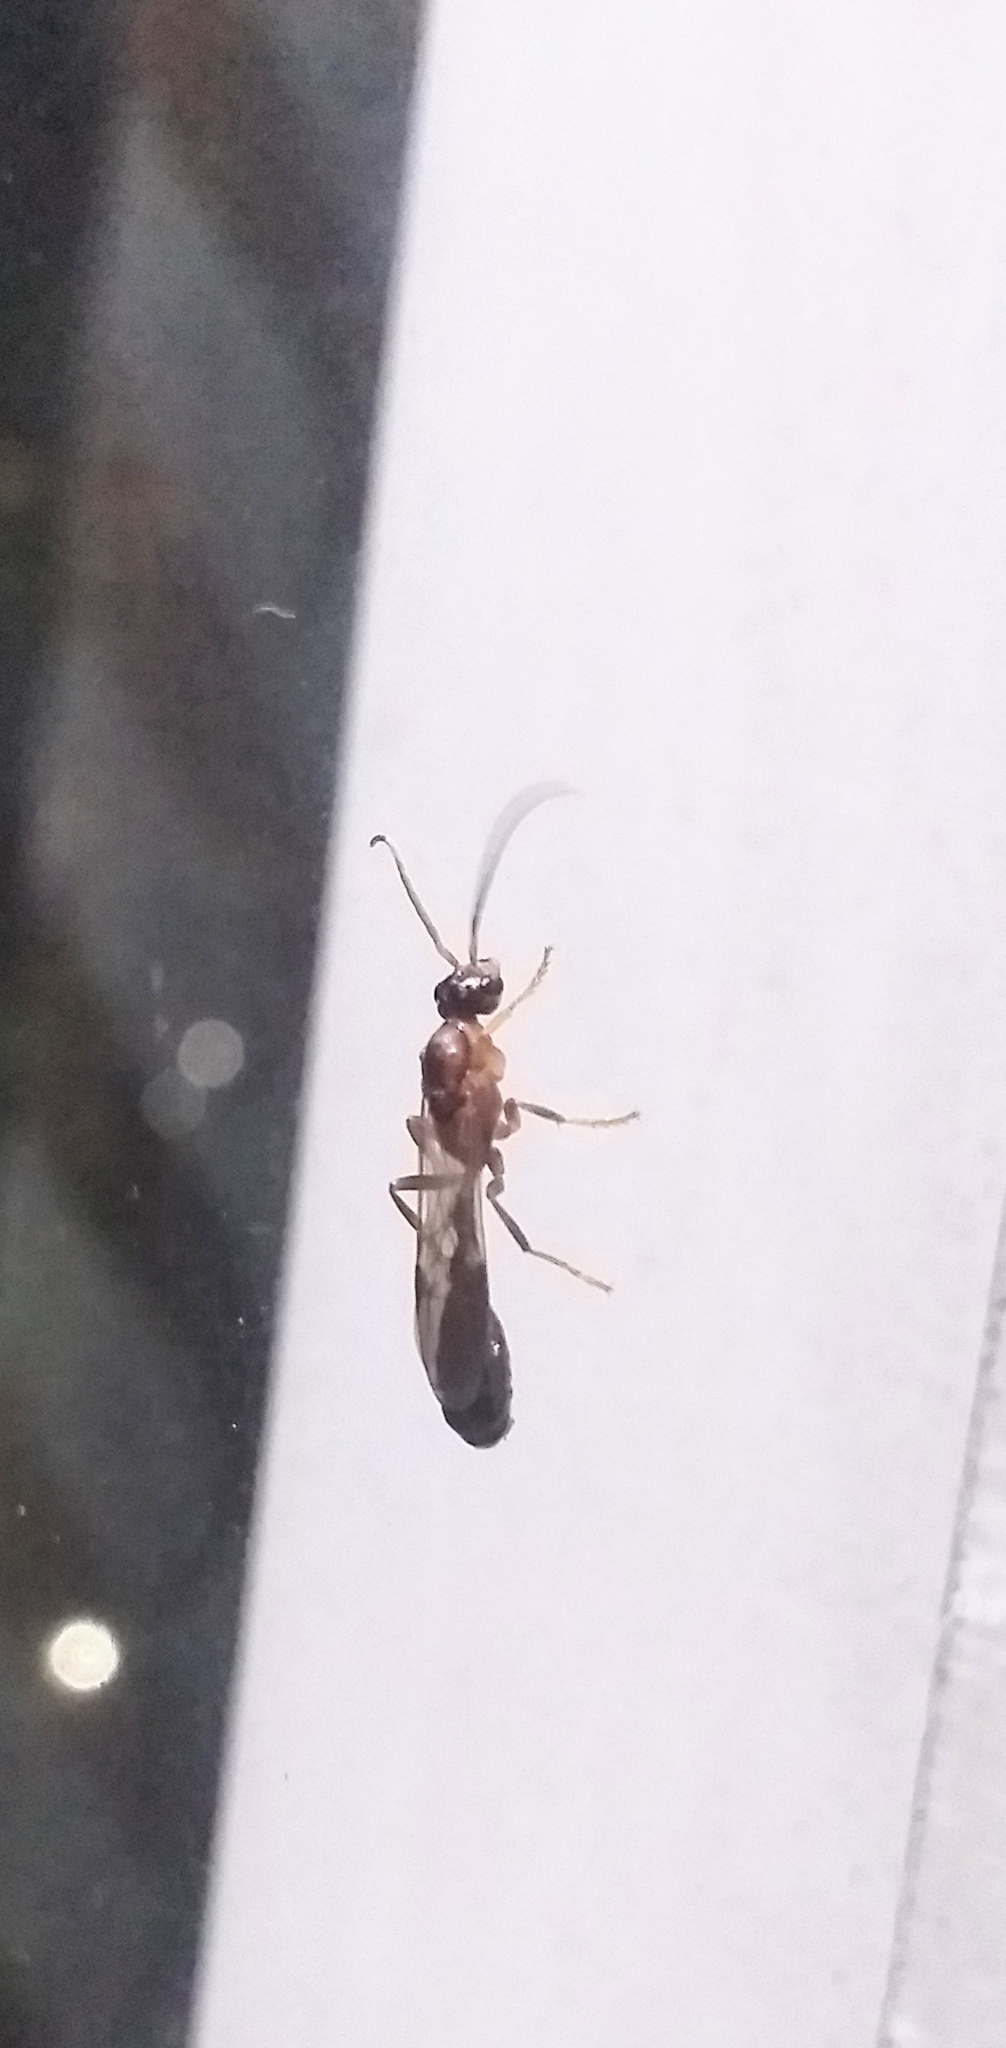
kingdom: Animalia
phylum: Arthropoda
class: Insecta
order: Hymenoptera
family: Formicidae
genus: Tetraponera
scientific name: Tetraponera rufonigra
